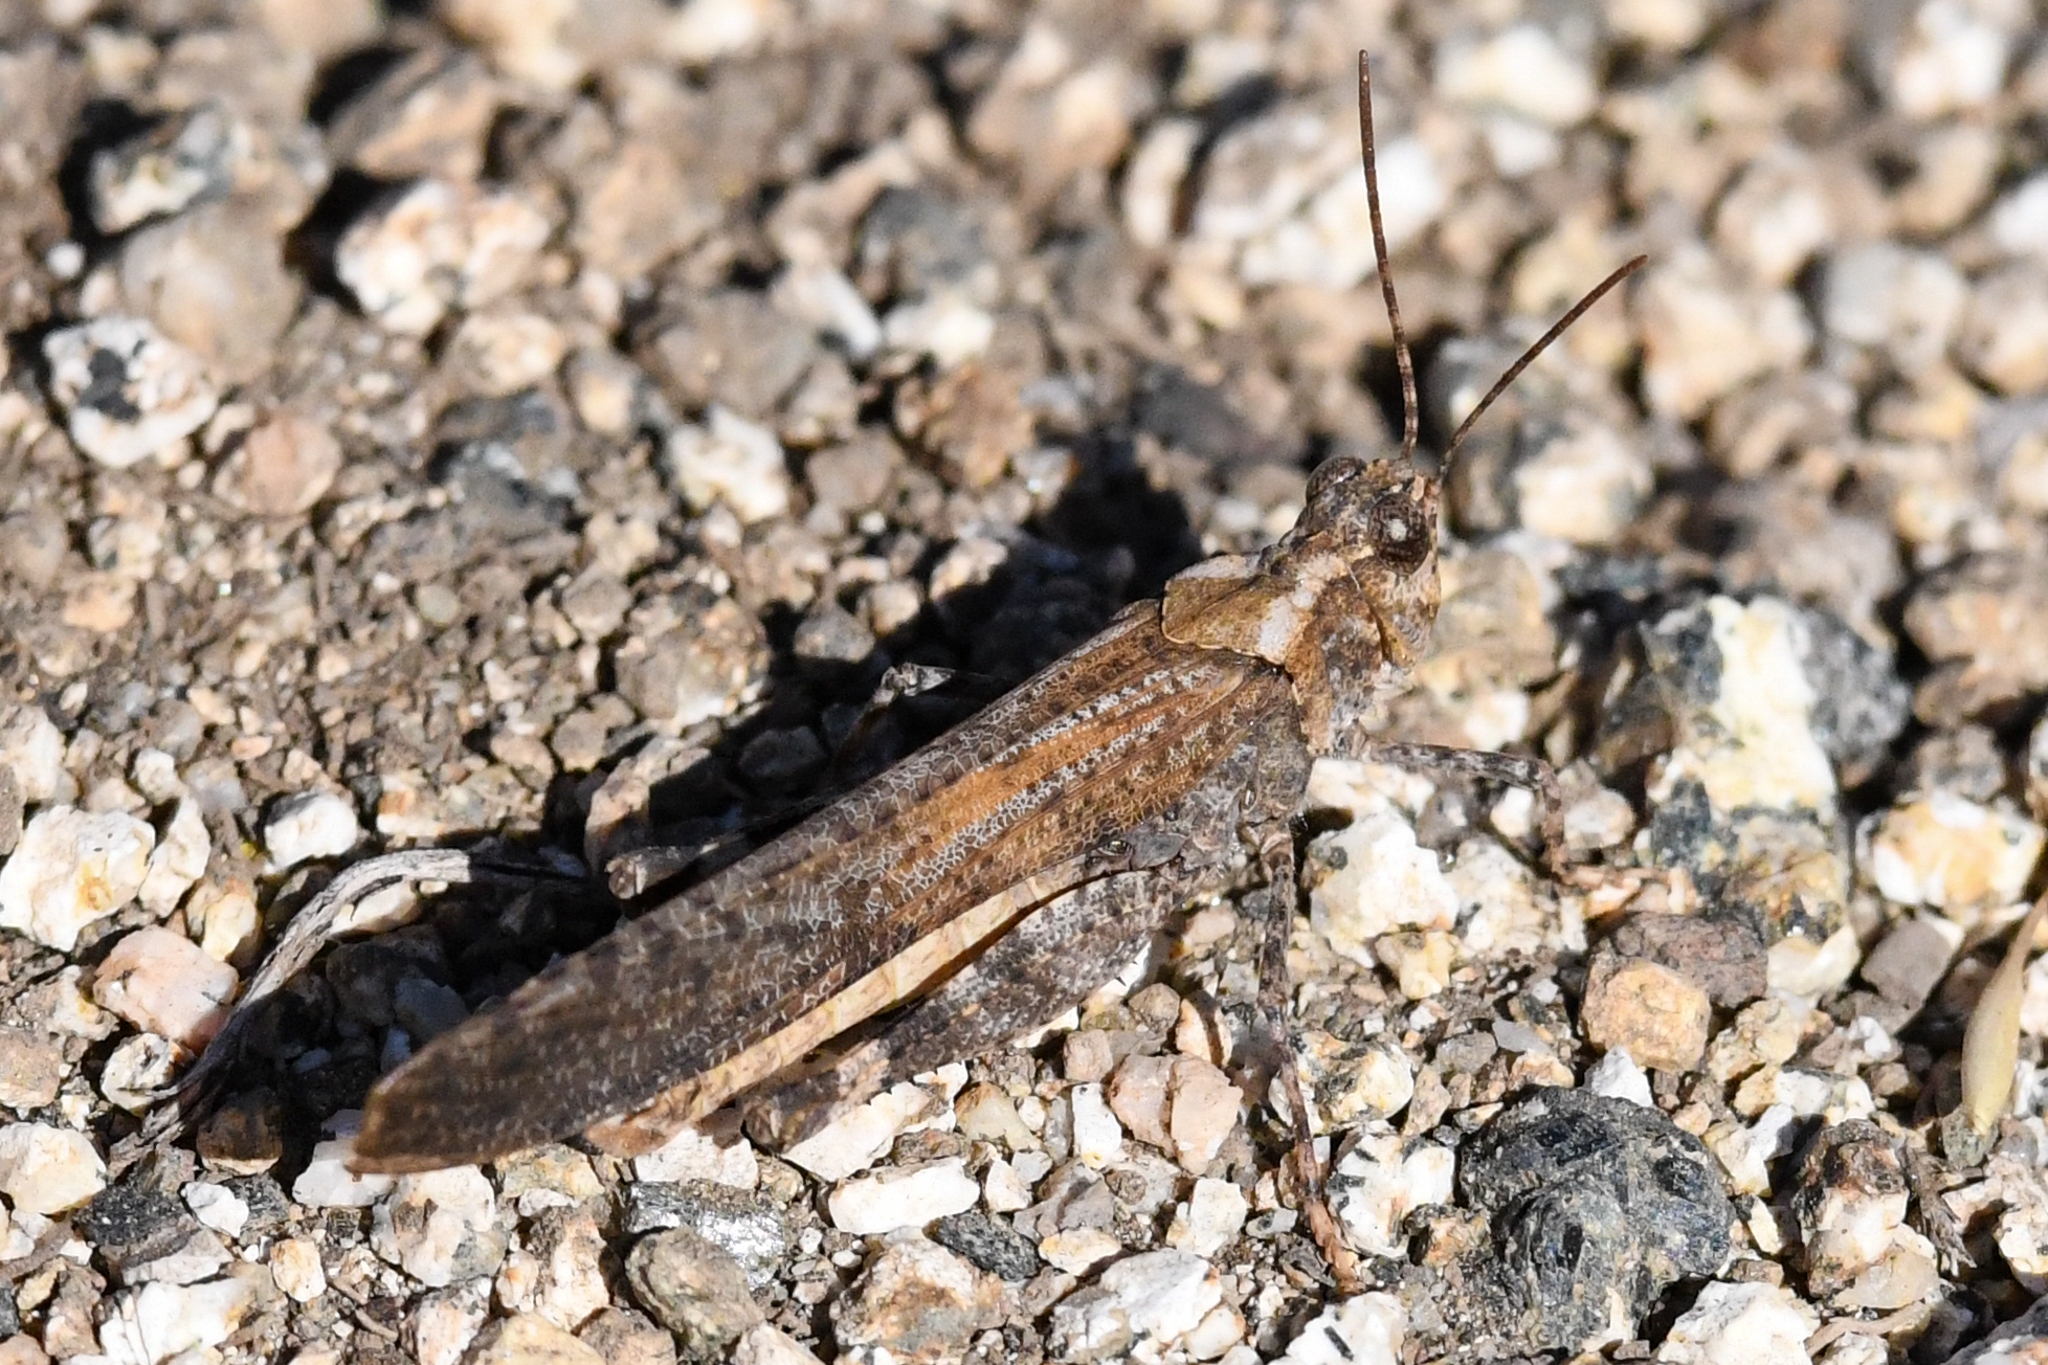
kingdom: Animalia
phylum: Arthropoda
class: Insecta
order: Orthoptera
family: Acrididae
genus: Trimerotropis
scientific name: Trimerotropis verruculata
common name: Crackling forest grasshopper
